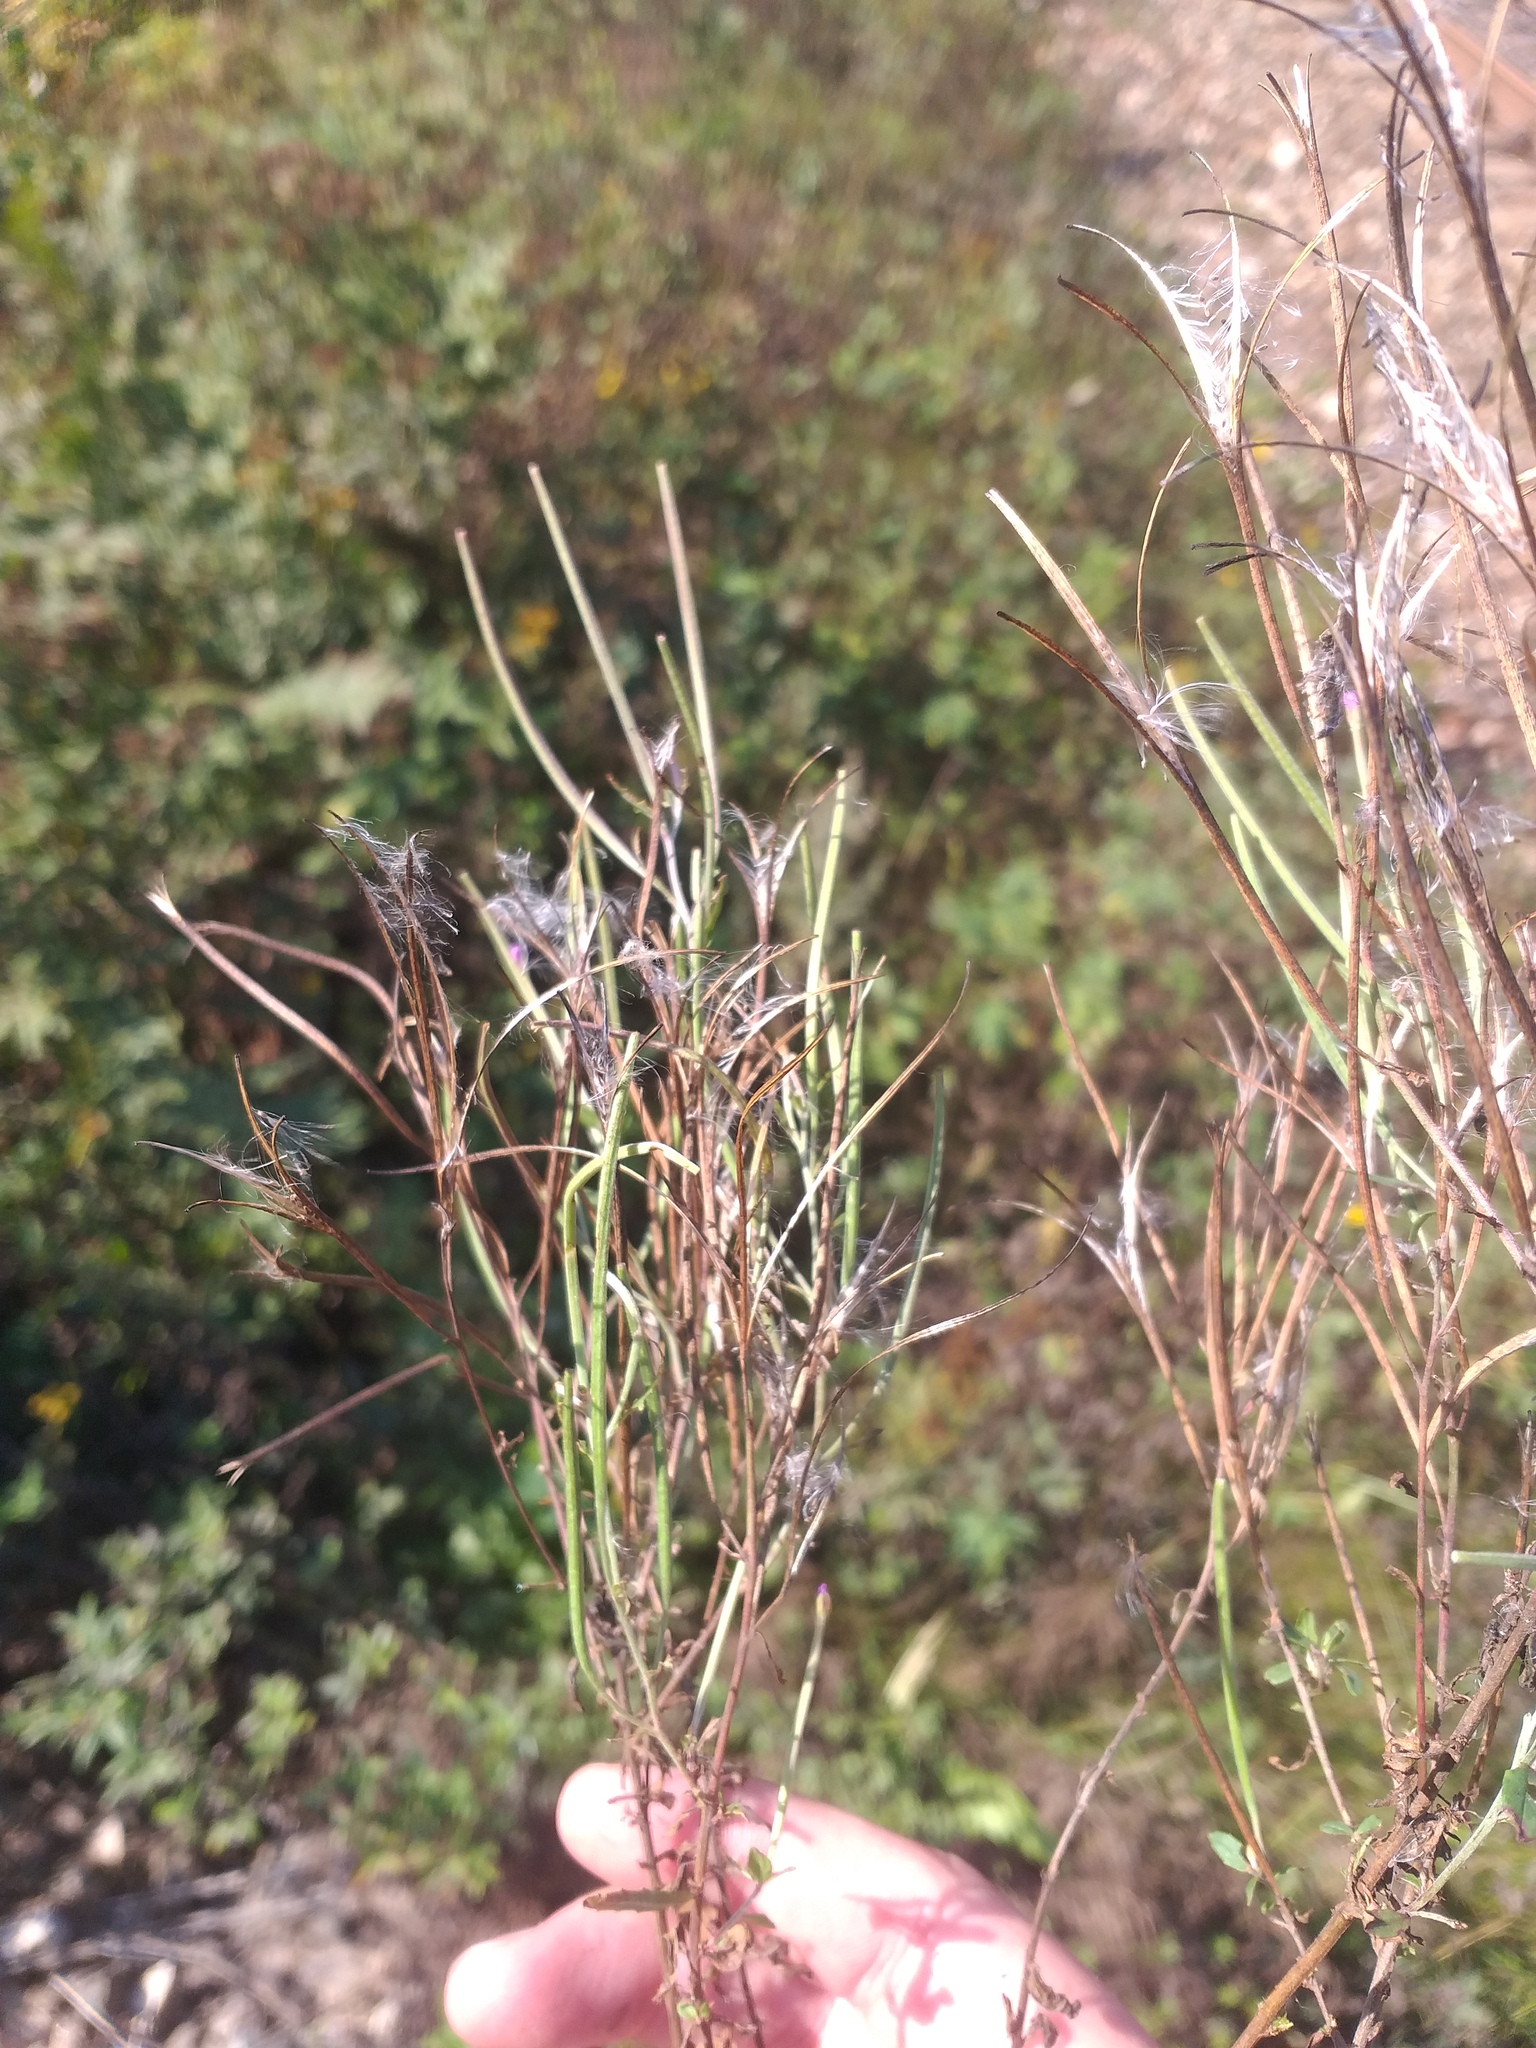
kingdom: Plantae
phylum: Tracheophyta
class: Magnoliopsida
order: Myrtales
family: Onagraceae
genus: Epilobium
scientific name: Epilobium lamyi
